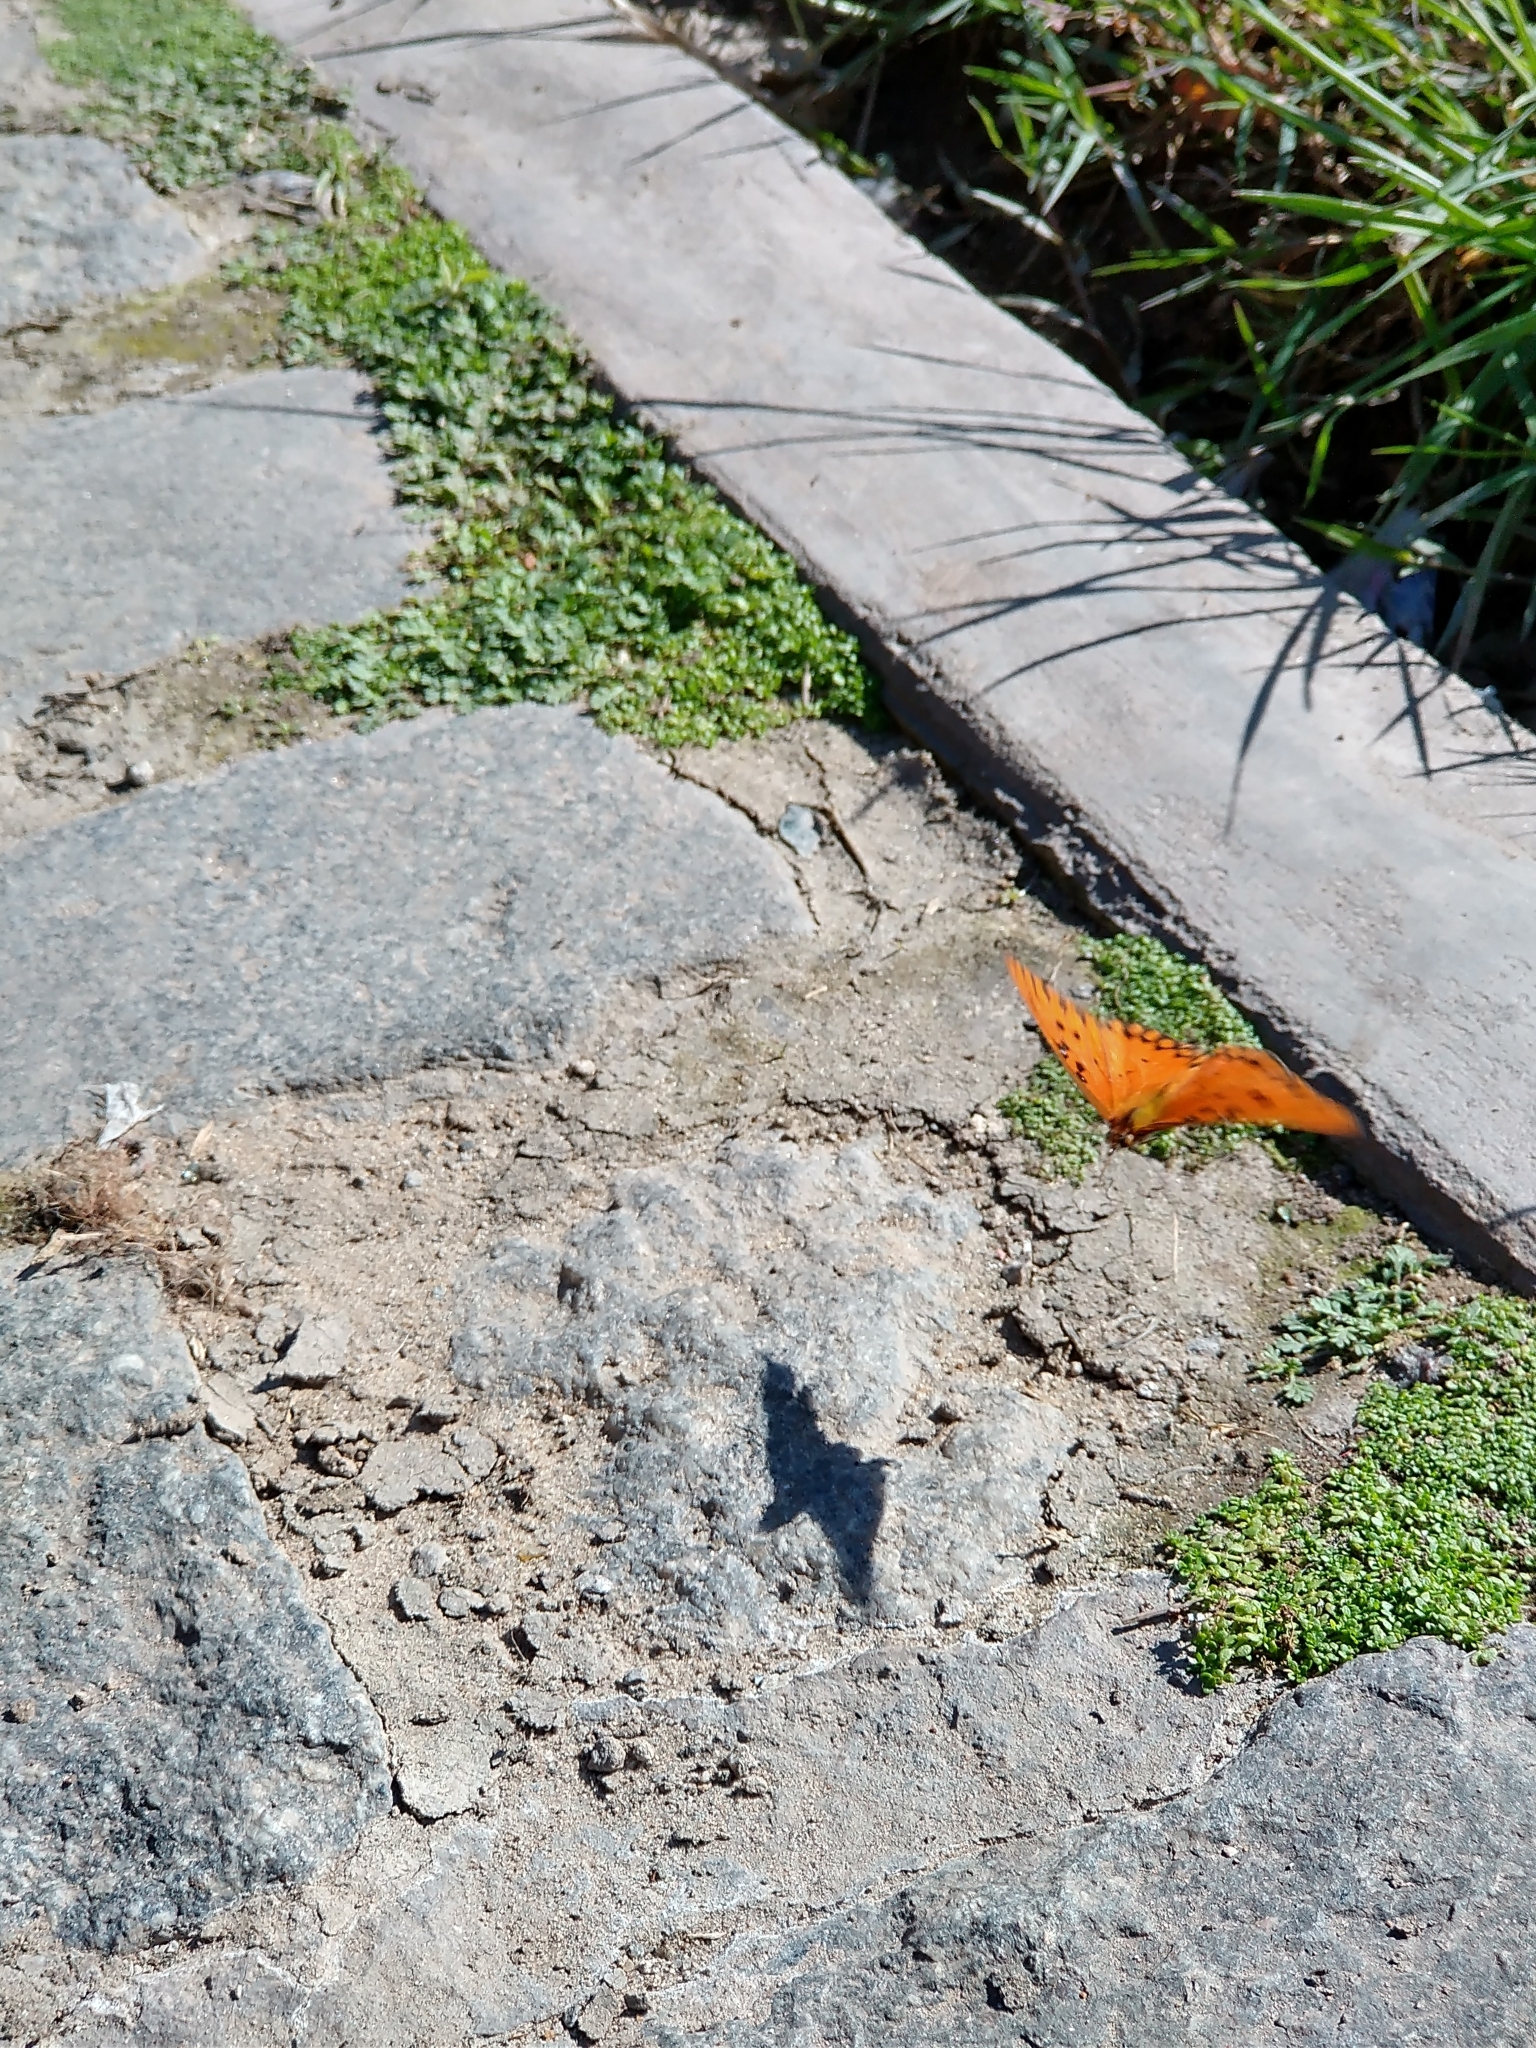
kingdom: Animalia
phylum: Arthropoda
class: Insecta
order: Lepidoptera
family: Nymphalidae
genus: Dione
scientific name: Dione vanillae
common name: Gulf fritillary
